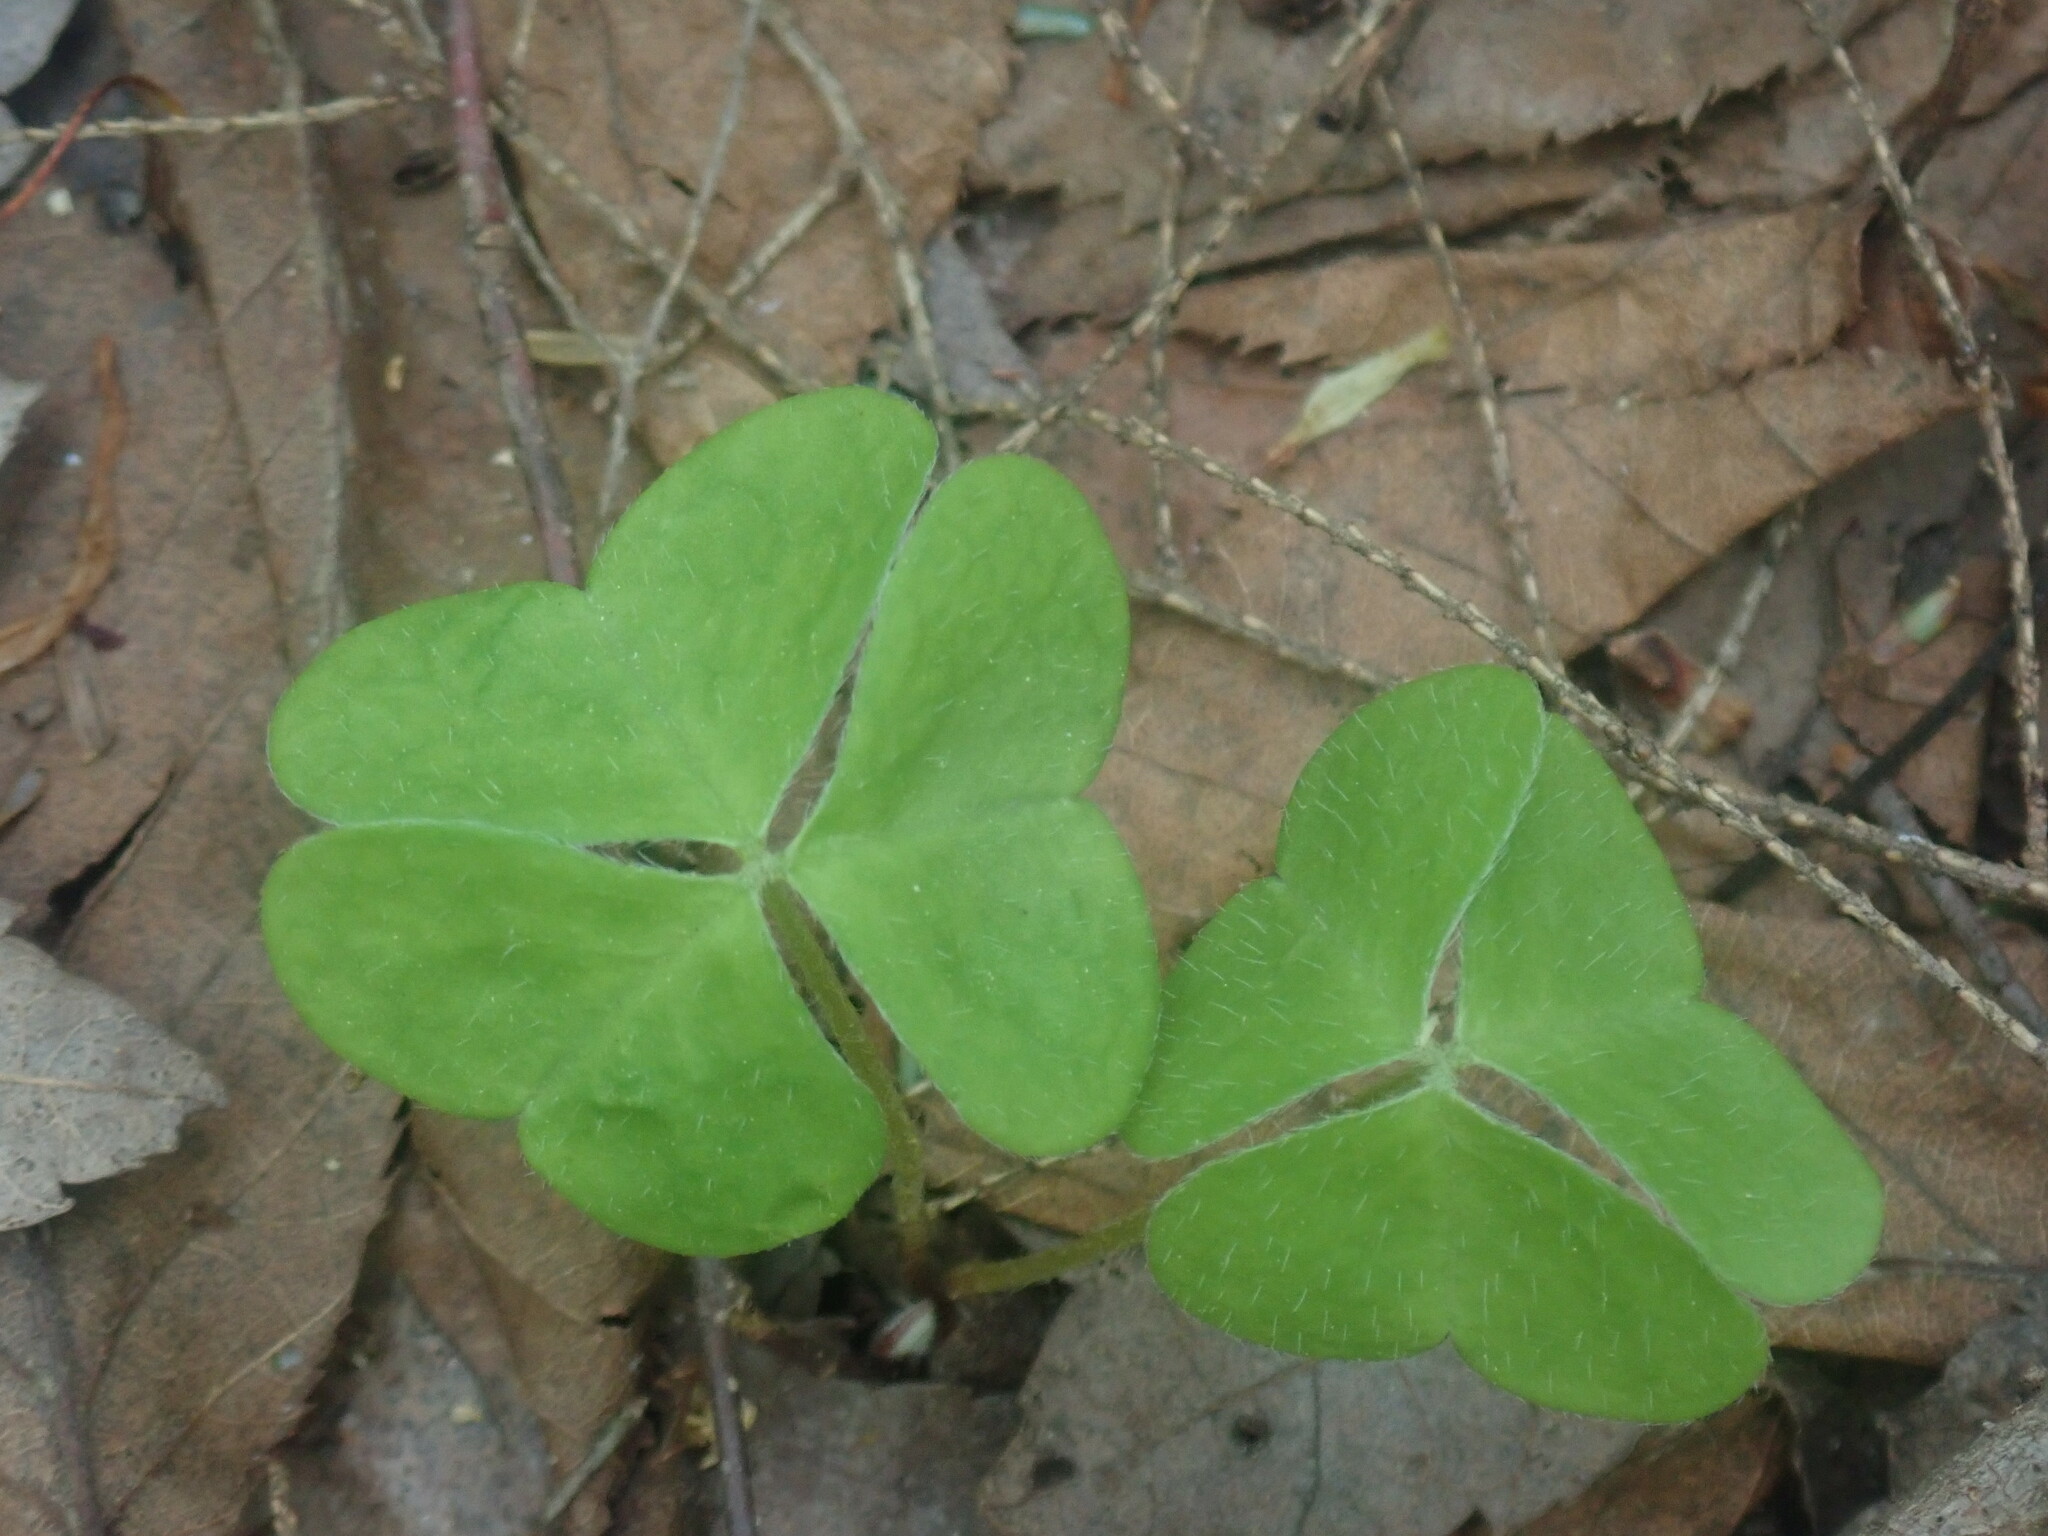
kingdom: Plantae
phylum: Tracheophyta
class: Magnoliopsida
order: Oxalidales
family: Oxalidaceae
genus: Oxalis
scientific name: Oxalis montana
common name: American wood-sorrel
